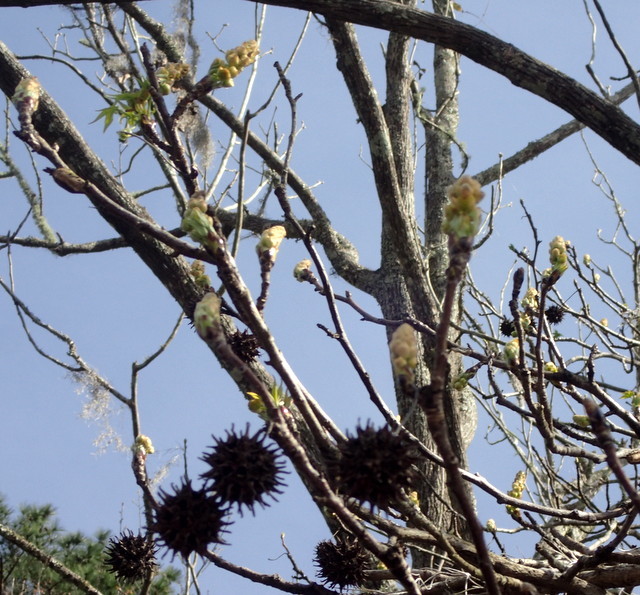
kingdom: Plantae
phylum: Tracheophyta
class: Magnoliopsida
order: Saxifragales
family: Altingiaceae
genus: Liquidambar
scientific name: Liquidambar styraciflua
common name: Sweet gum
